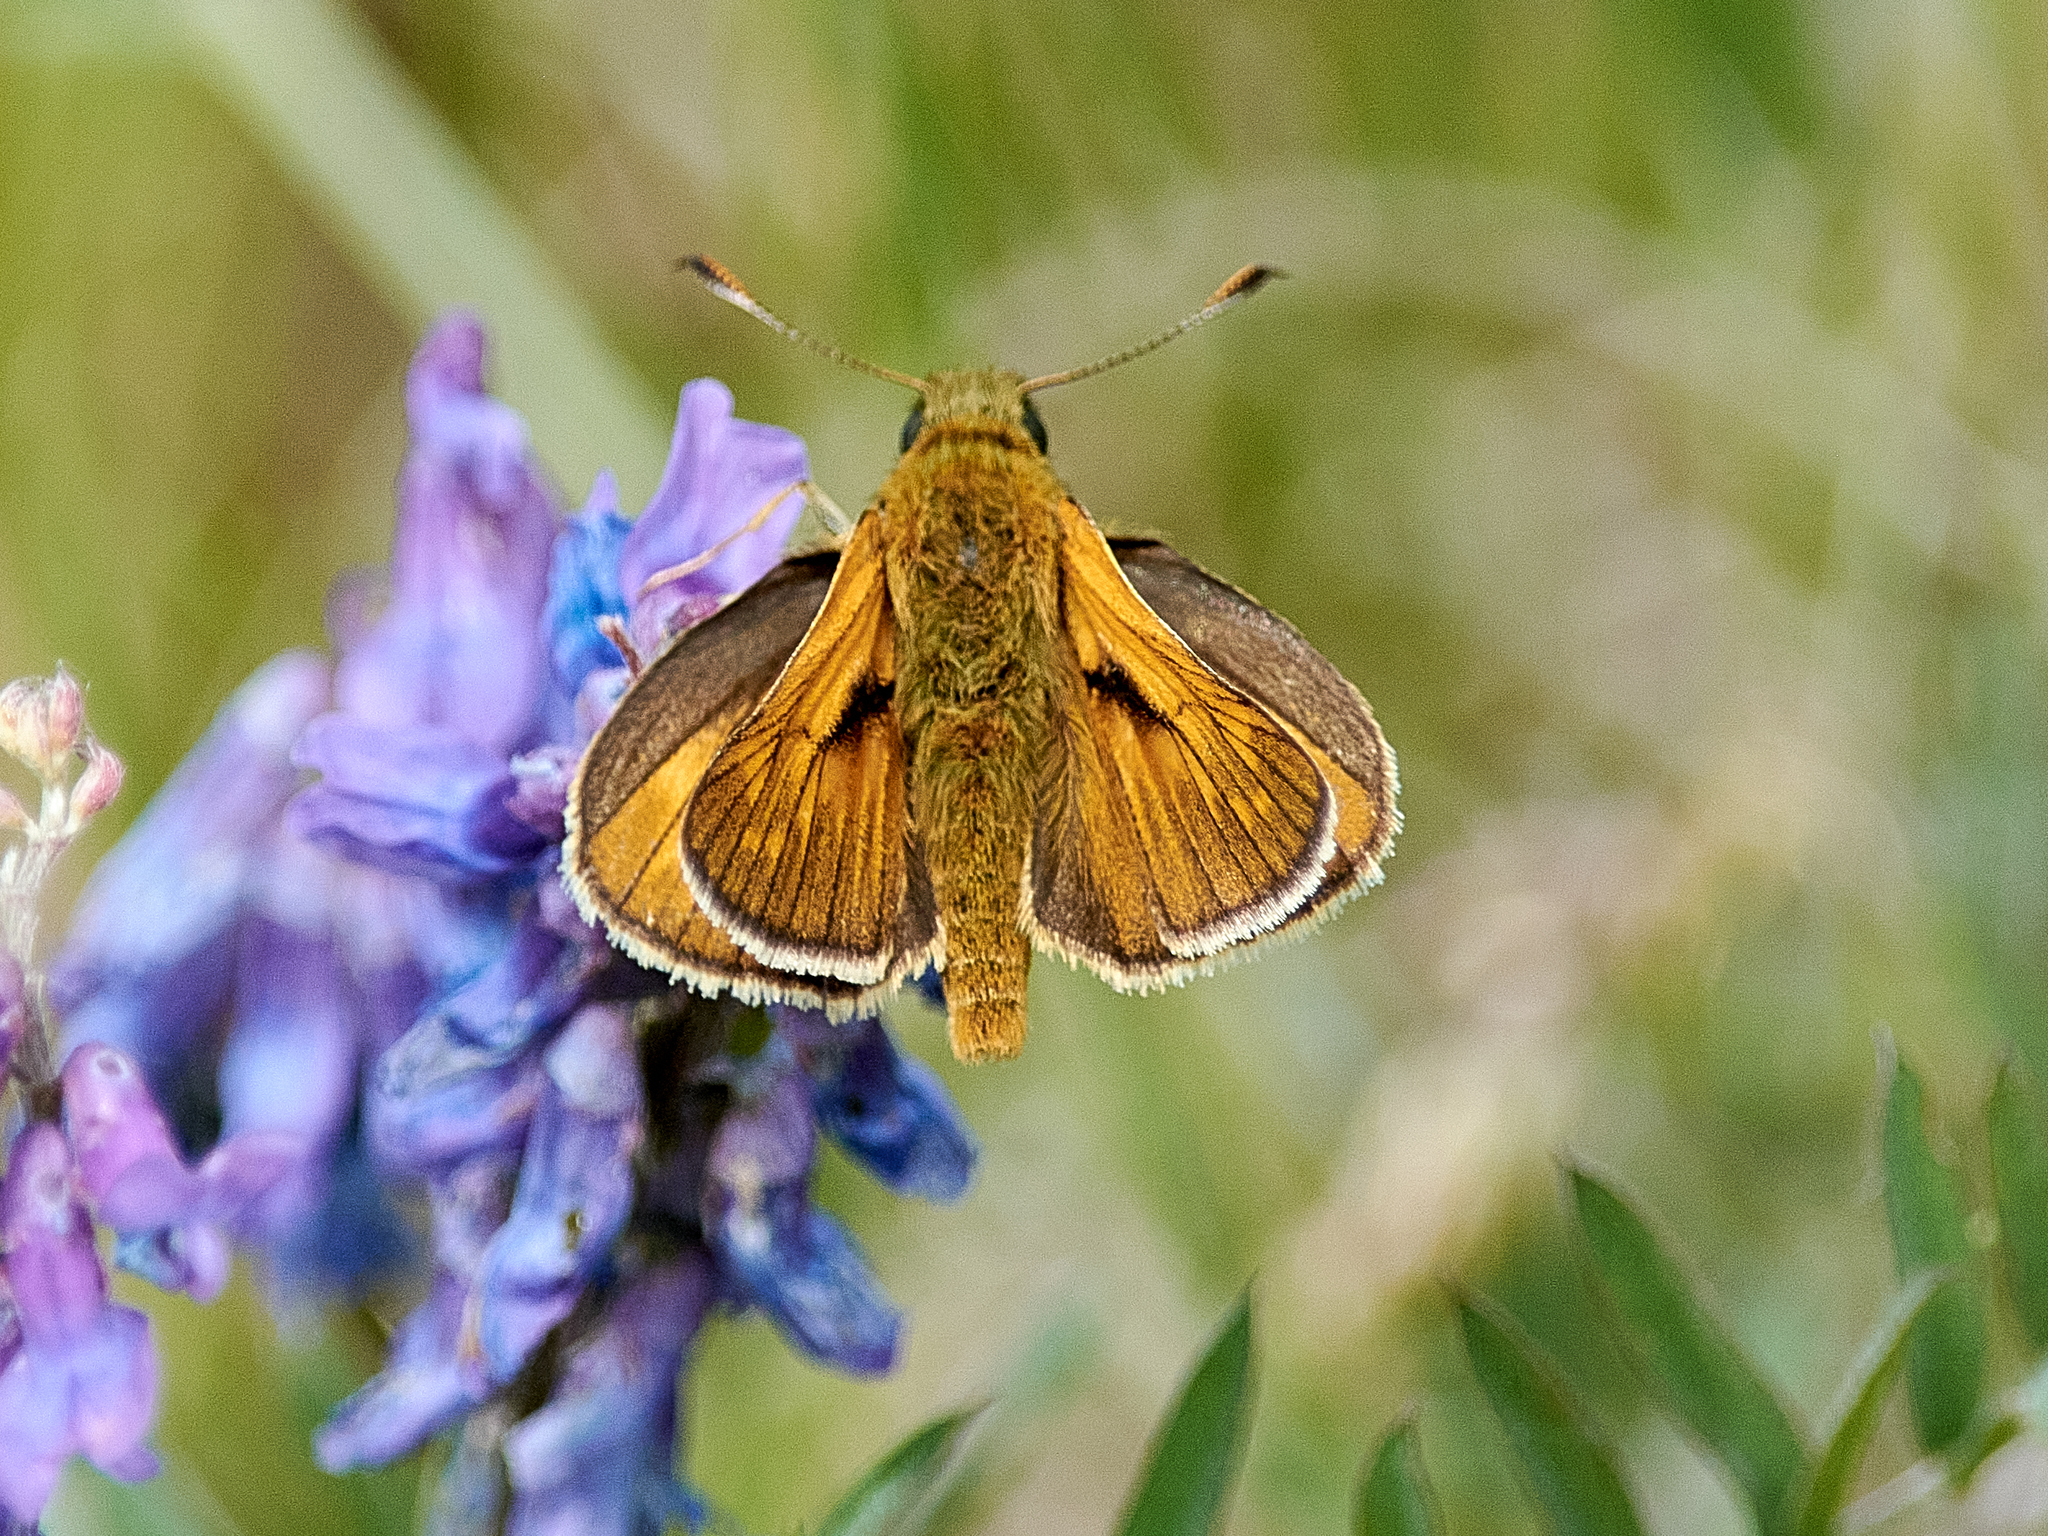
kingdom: Animalia
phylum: Arthropoda
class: Insecta
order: Lepidoptera
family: Hesperiidae
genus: Ochlodes
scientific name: Ochlodes venata
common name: Large skipper
